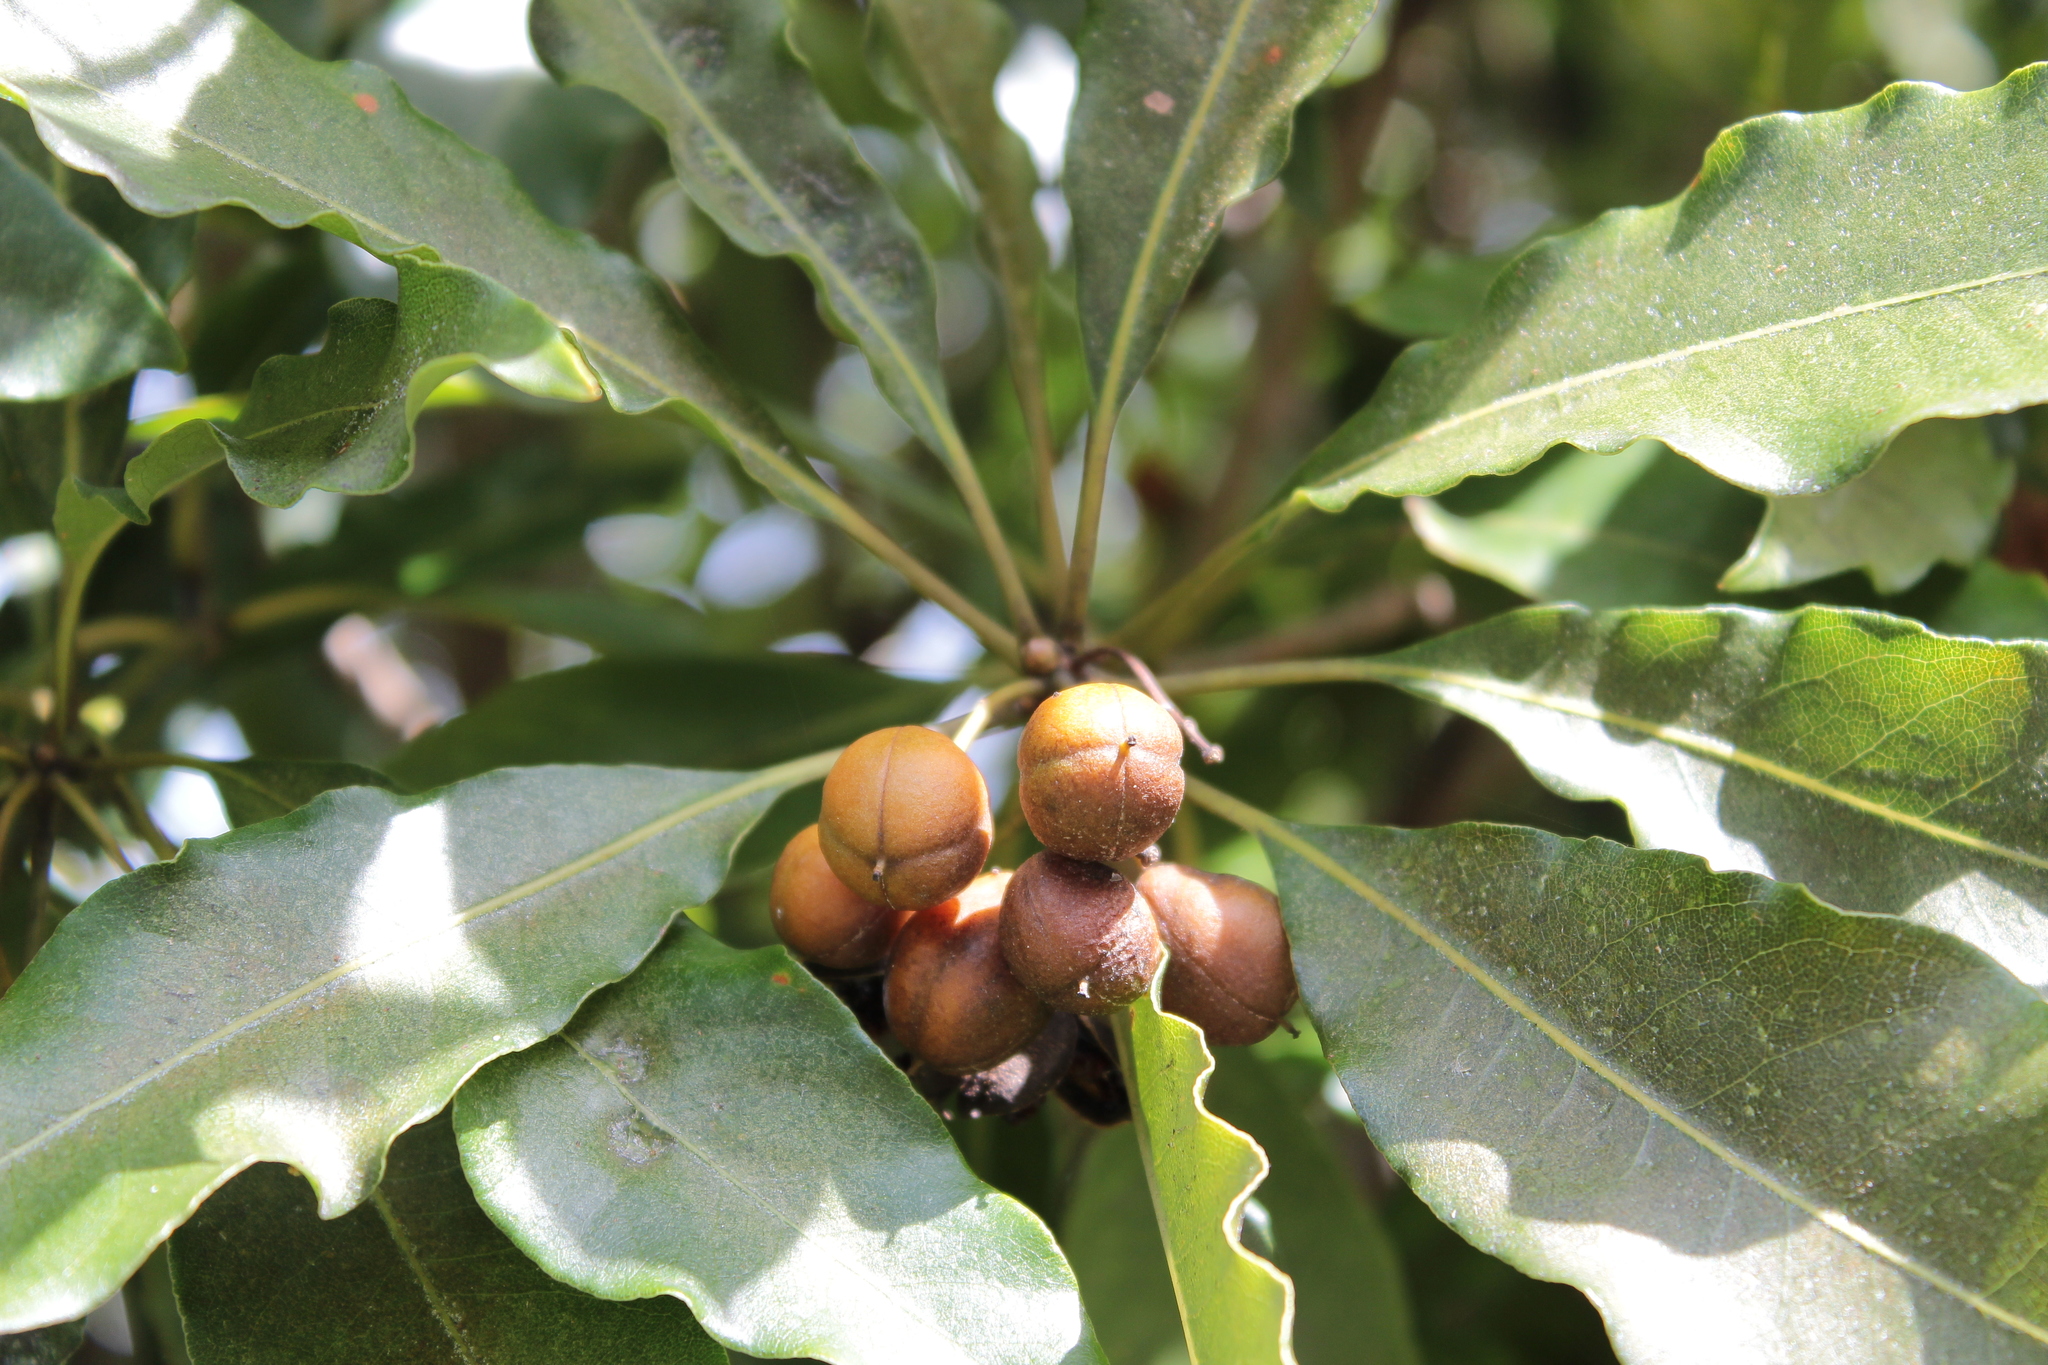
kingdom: Plantae
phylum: Tracheophyta
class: Magnoliopsida
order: Apiales
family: Pittosporaceae
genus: Pittosporum
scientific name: Pittosporum undulatum
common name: Australian cheesewood
